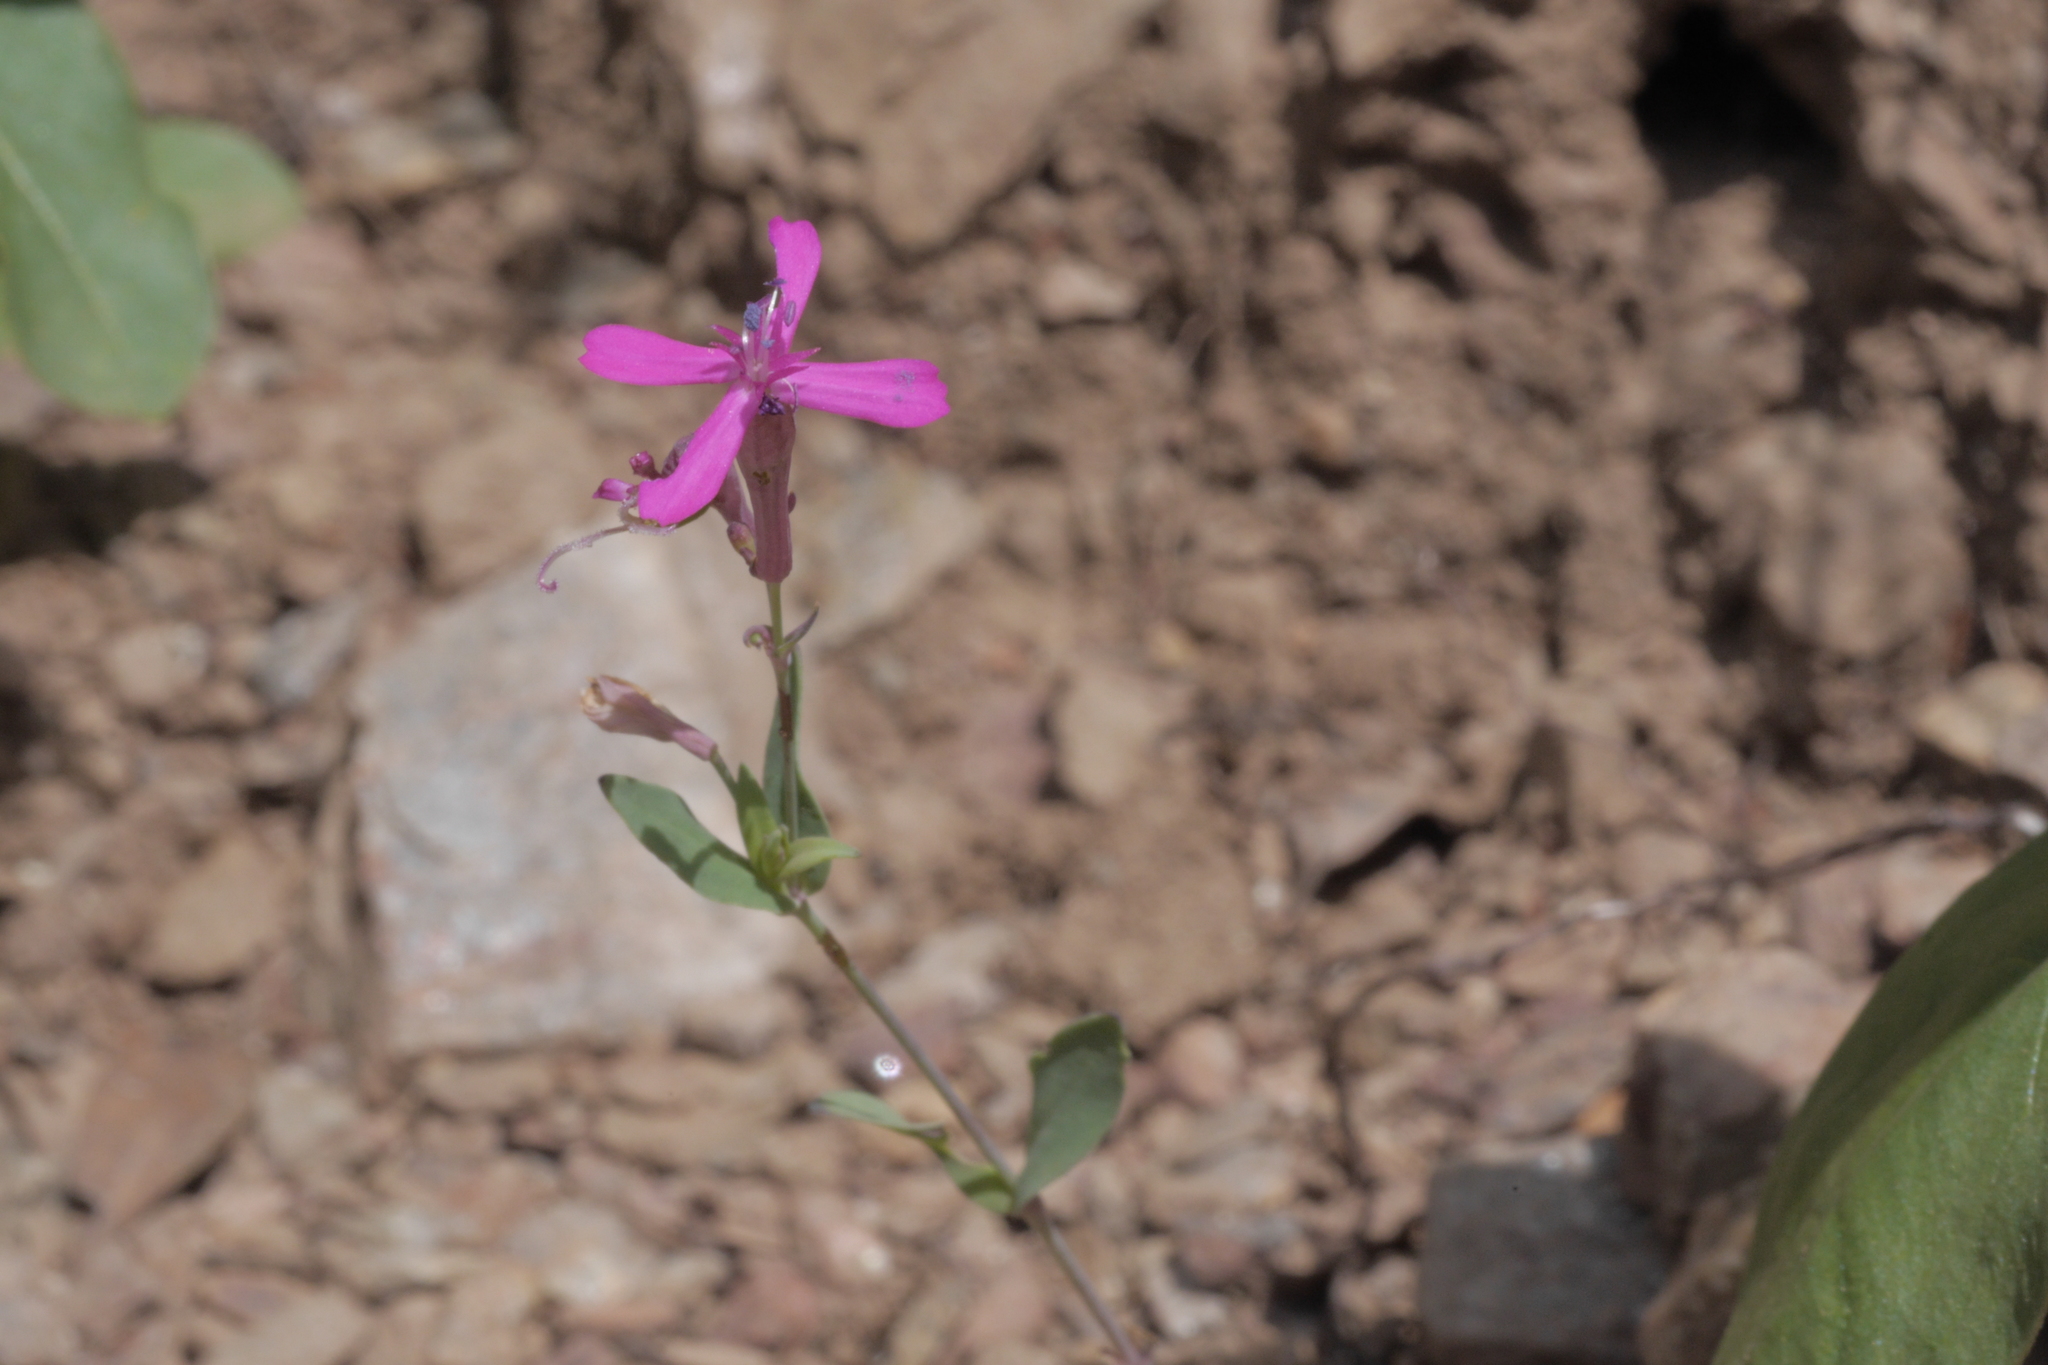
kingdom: Plantae
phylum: Tracheophyta
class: Magnoliopsida
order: Caryophyllales
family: Caryophyllaceae
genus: Atocion
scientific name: Atocion armeria
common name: Sweet william catchfly
